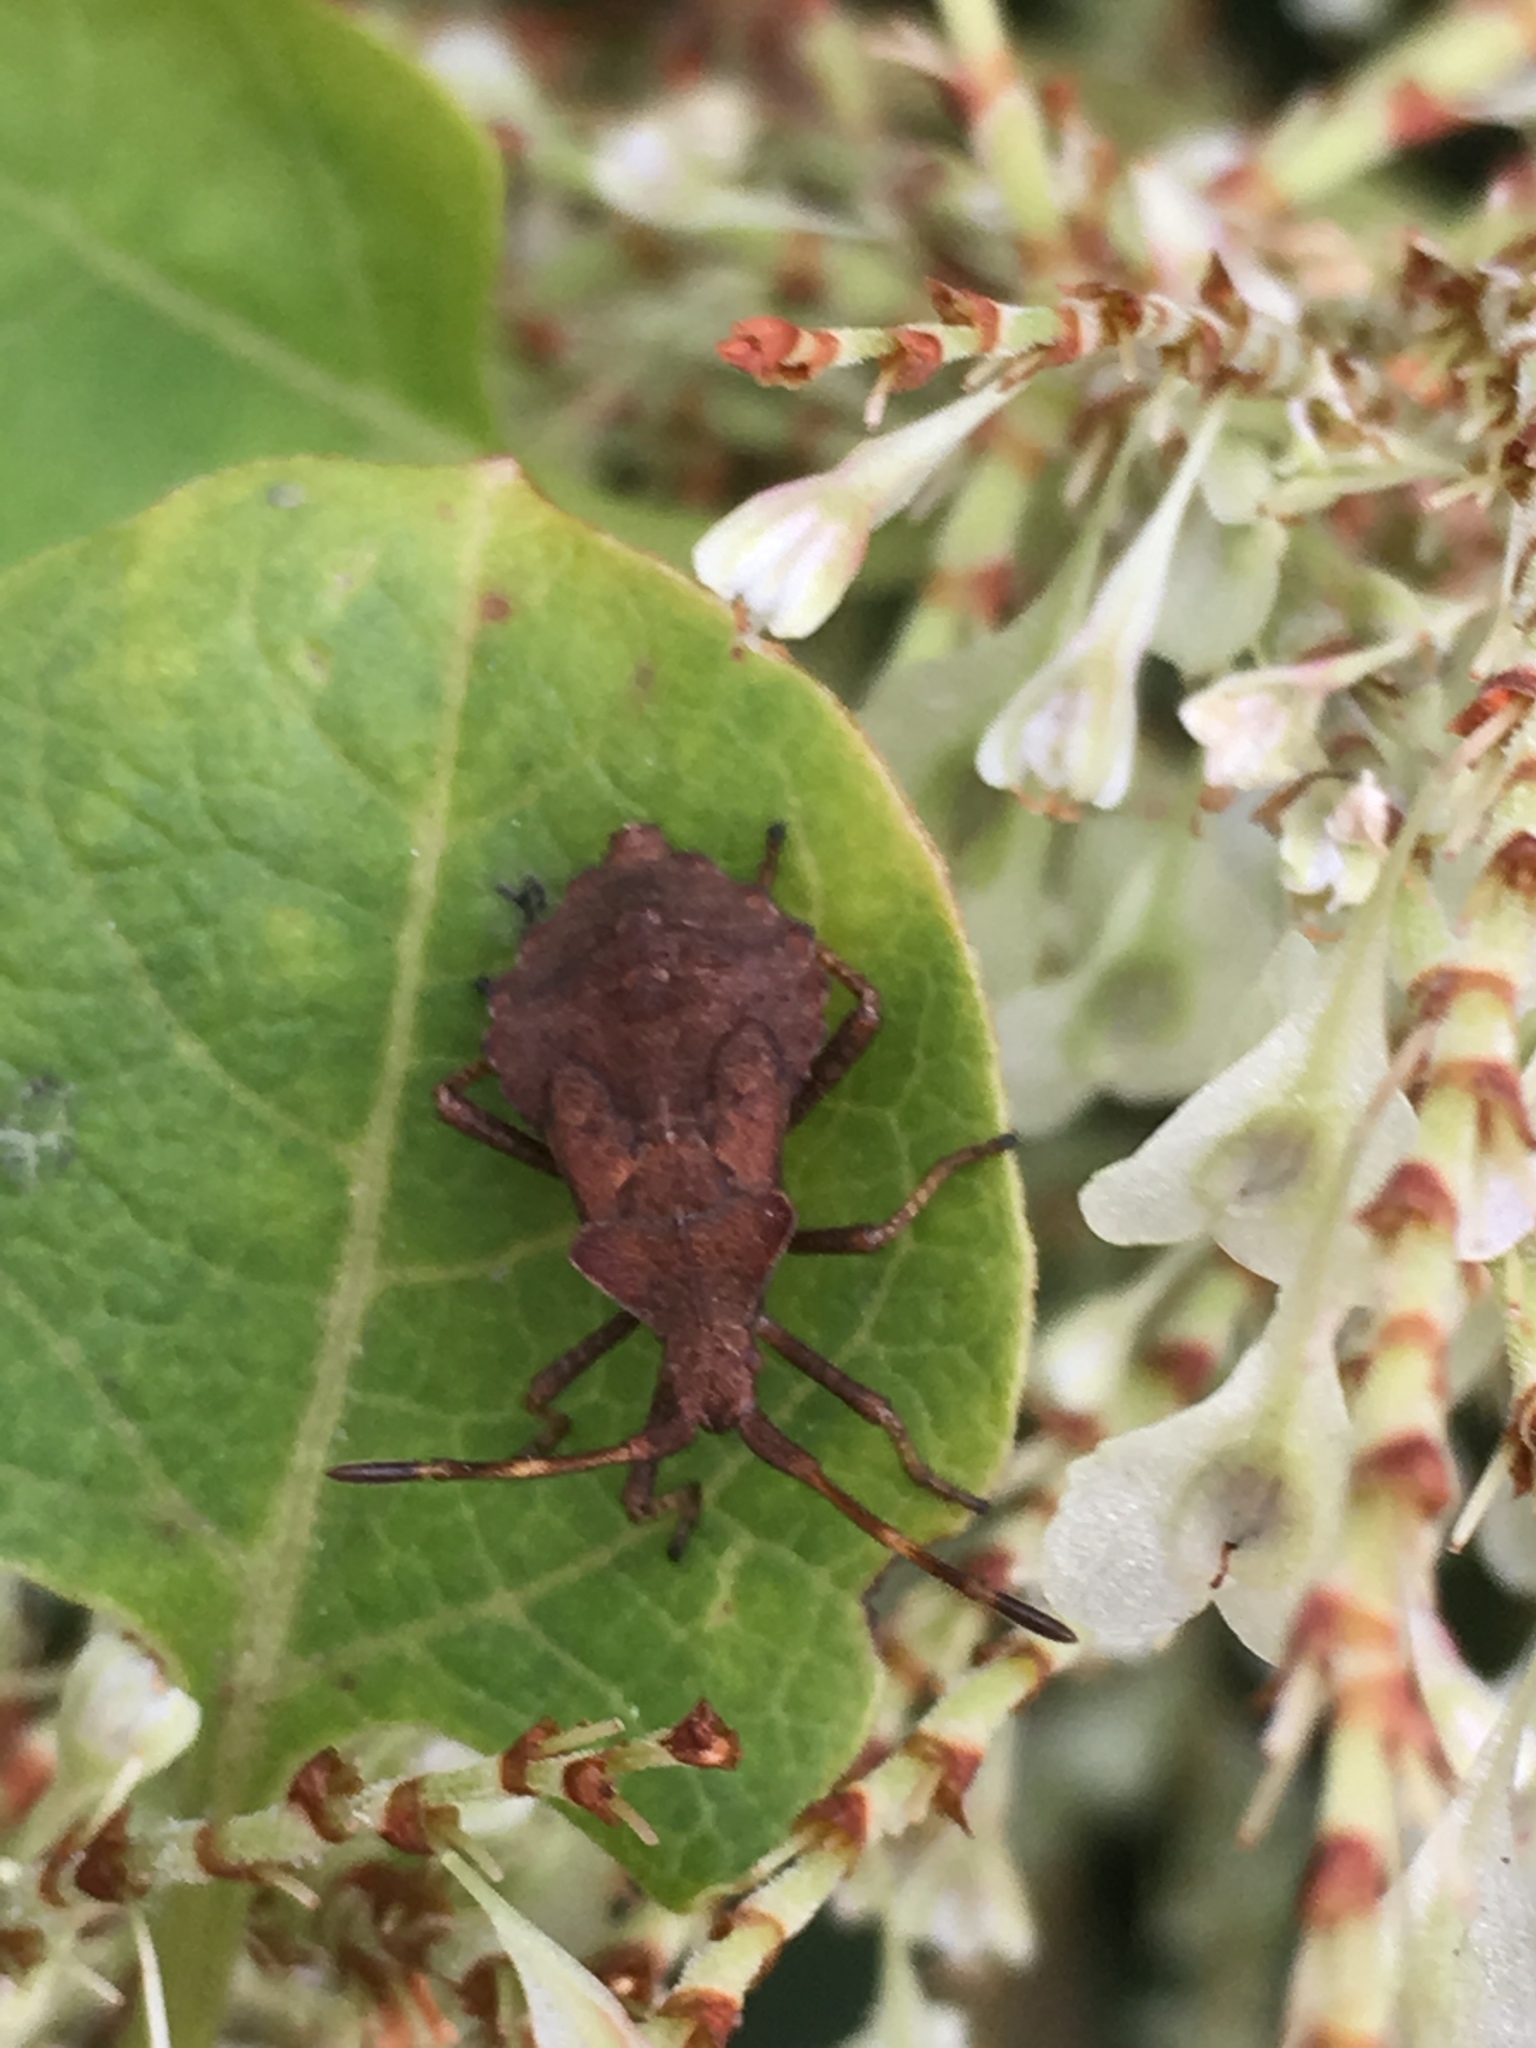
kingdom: Animalia
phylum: Arthropoda
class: Insecta
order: Hemiptera
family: Coreidae
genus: Coreus
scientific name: Coreus marginatus
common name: Dock bug
